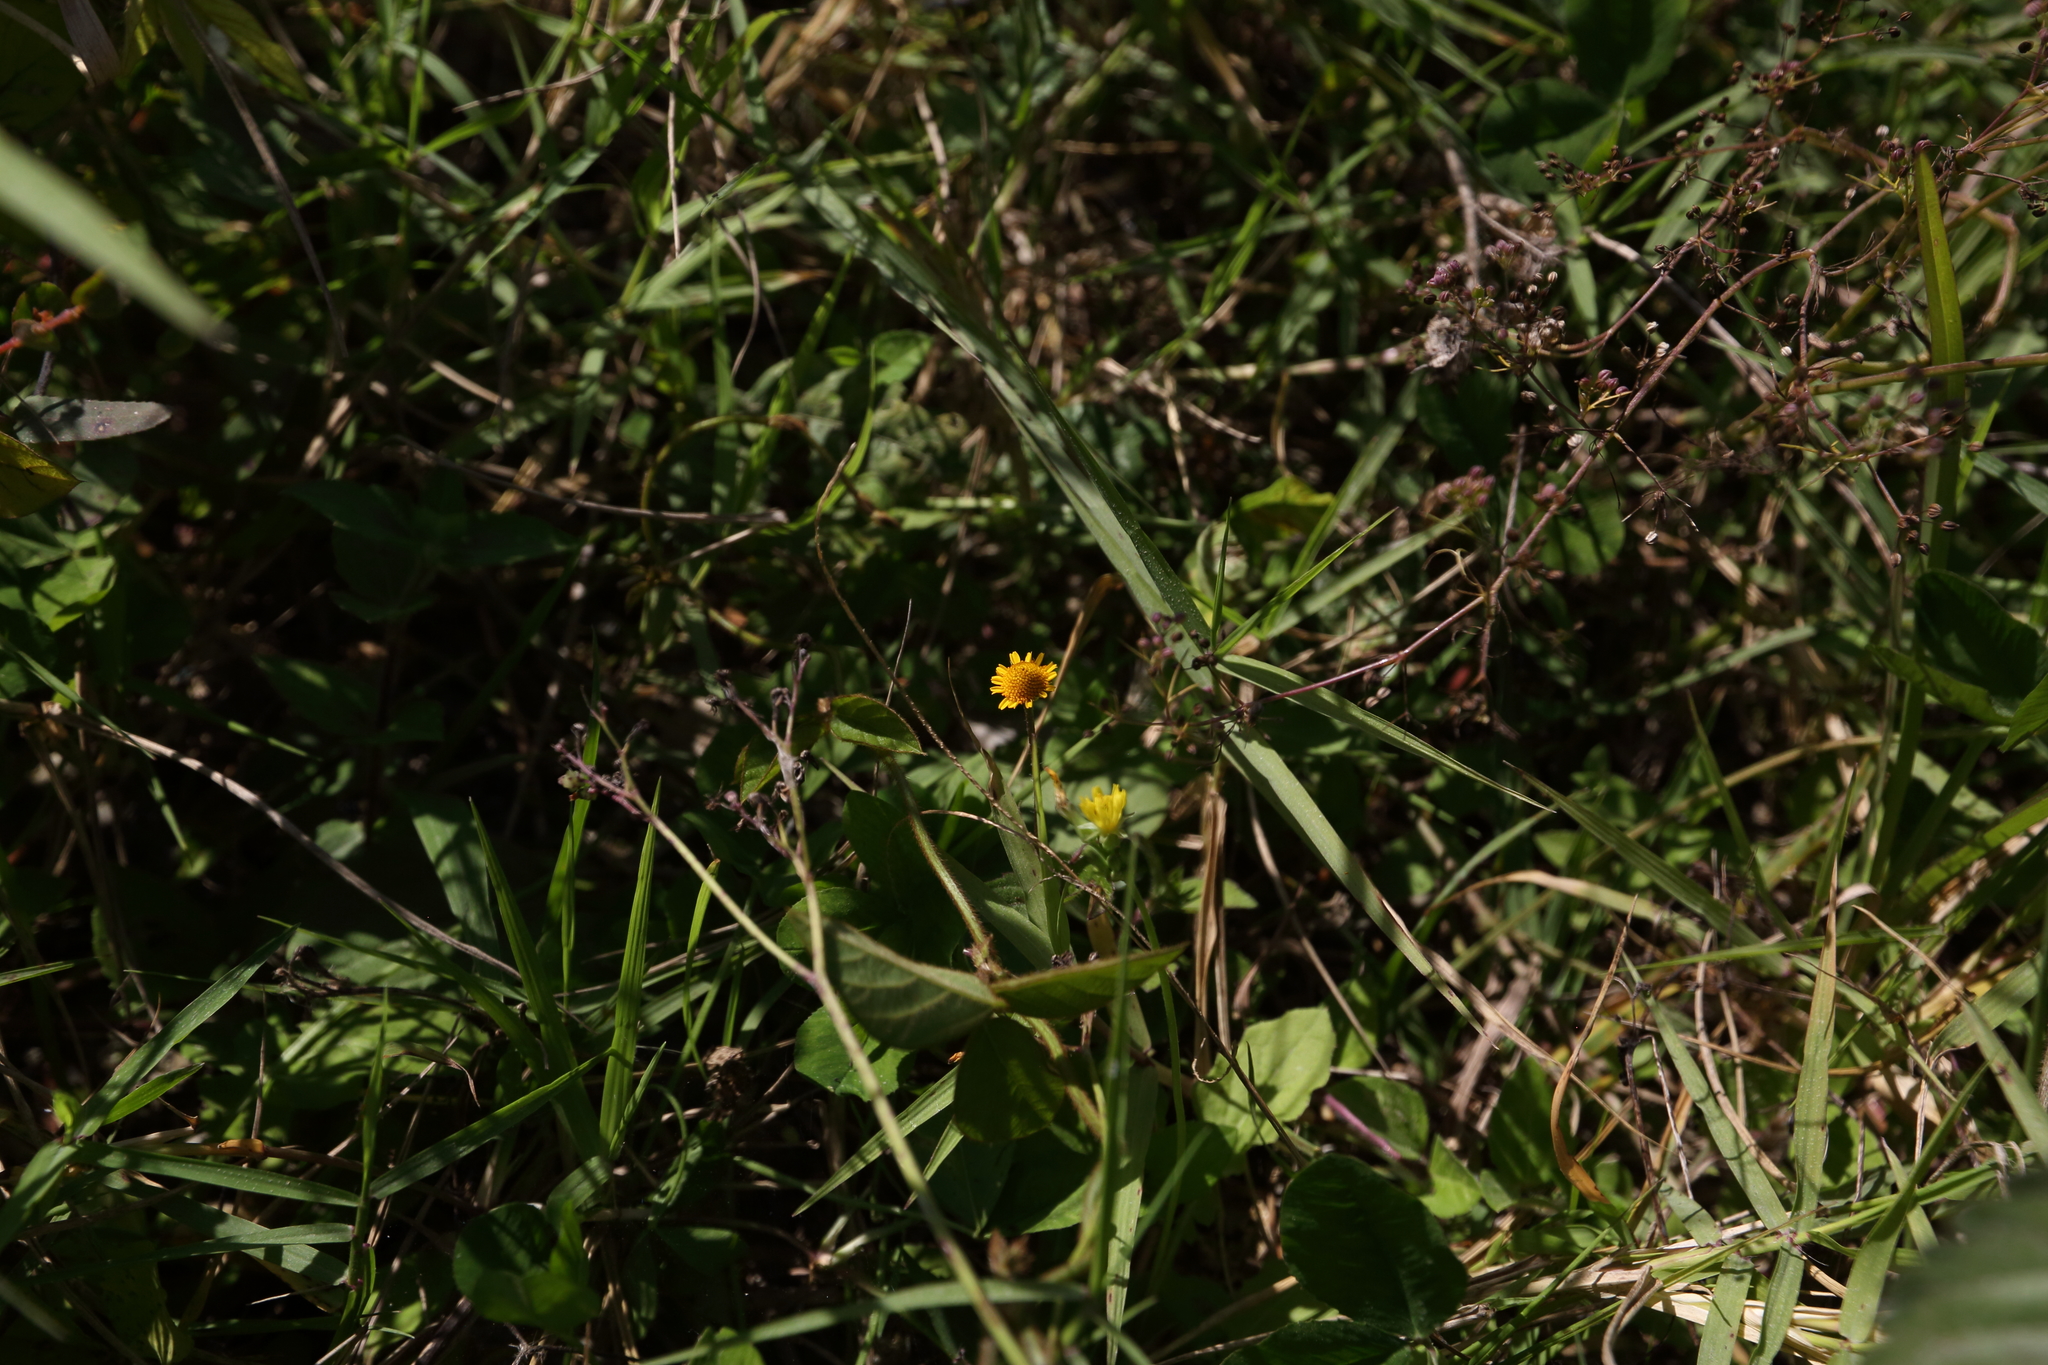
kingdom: Plantae
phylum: Tracheophyta
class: Magnoliopsida
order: Asterales
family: Asteraceae
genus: Acmella
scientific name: Acmella repens
